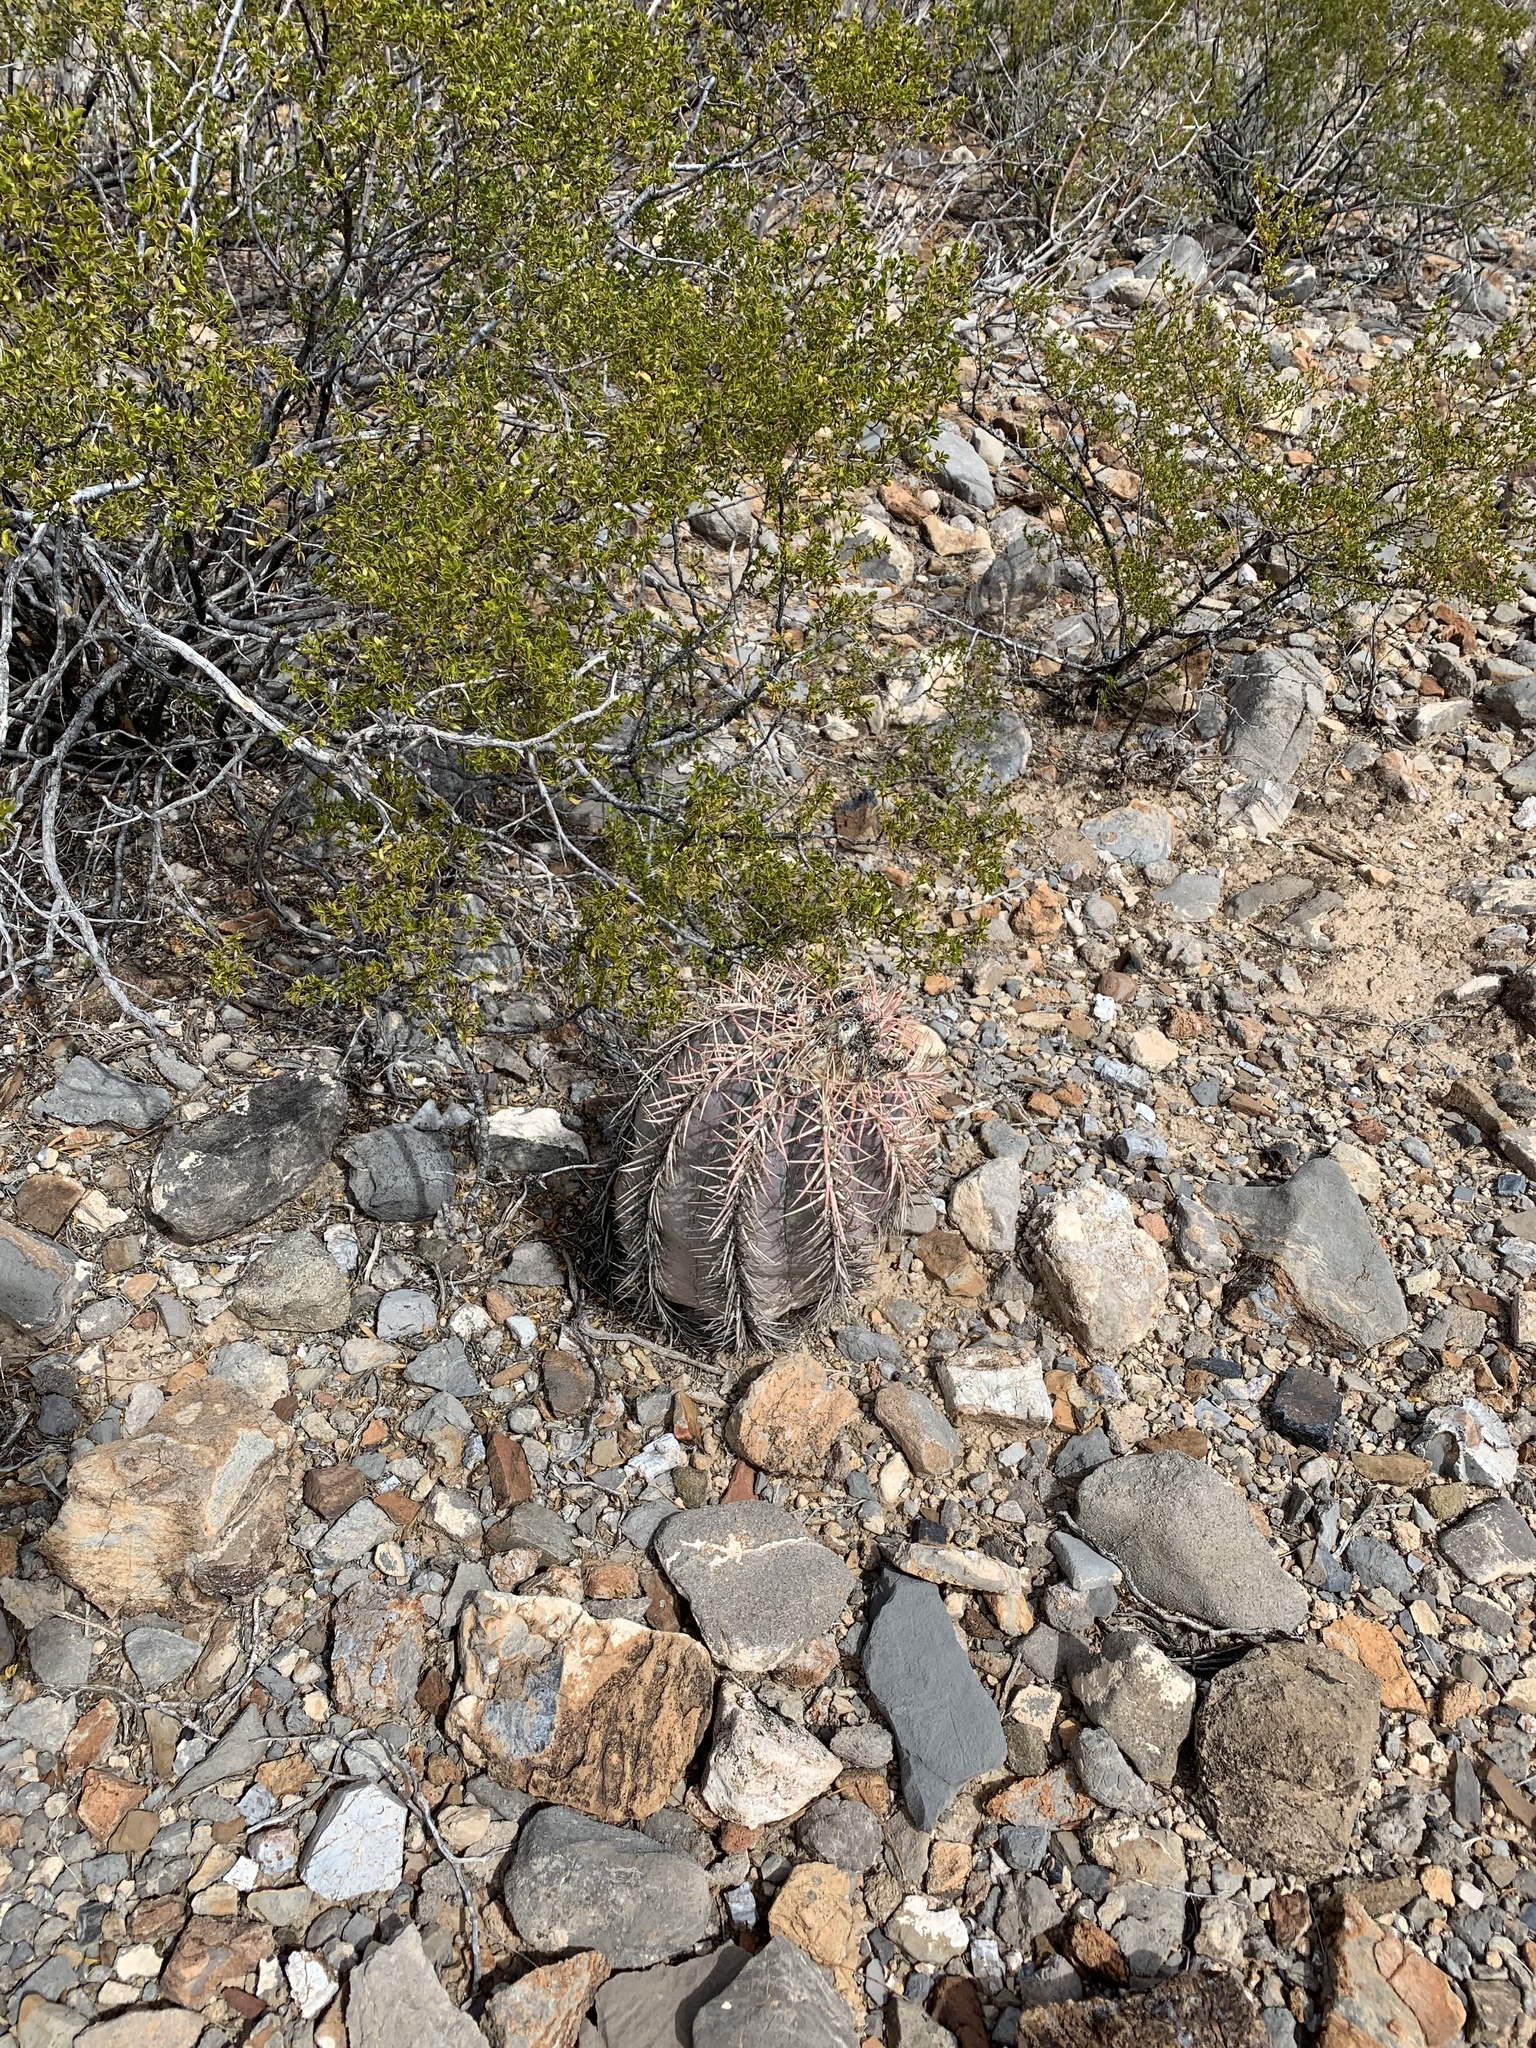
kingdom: Plantae
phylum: Tracheophyta
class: Magnoliopsida
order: Caryophyllales
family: Cactaceae
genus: Echinocactus
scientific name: Echinocactus horizonthalonius
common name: Devilshead
